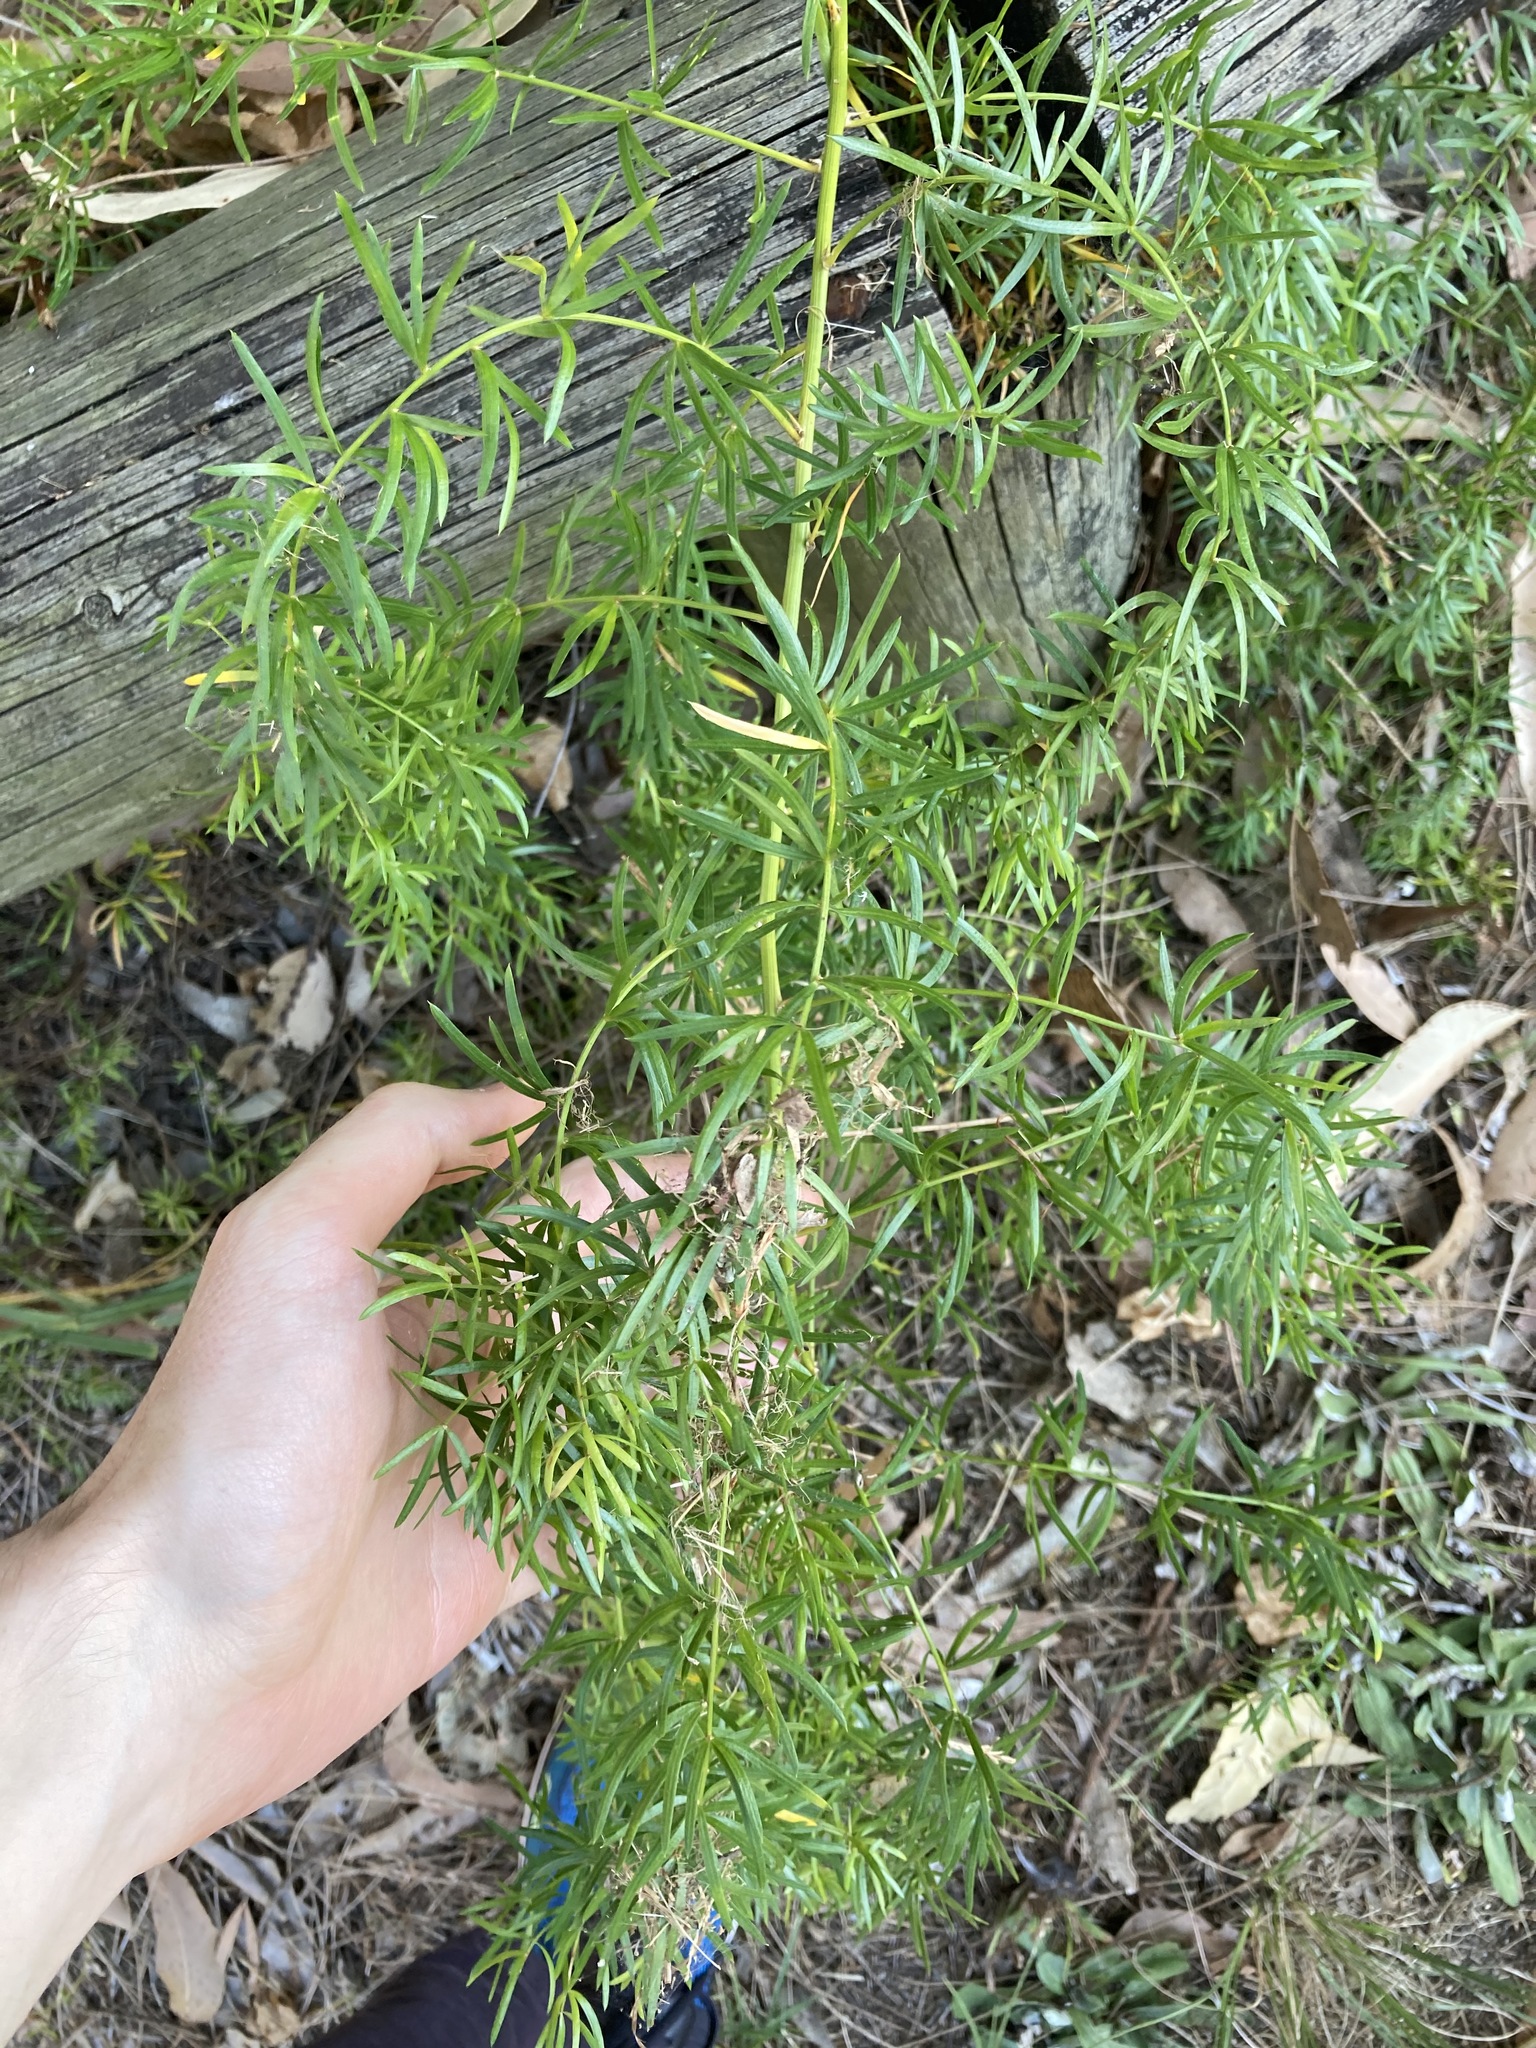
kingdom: Plantae
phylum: Tracheophyta
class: Liliopsida
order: Asparagales
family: Asparagaceae
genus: Asparagus
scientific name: Asparagus aethiopicus
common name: Sprenger's asparagus fern
